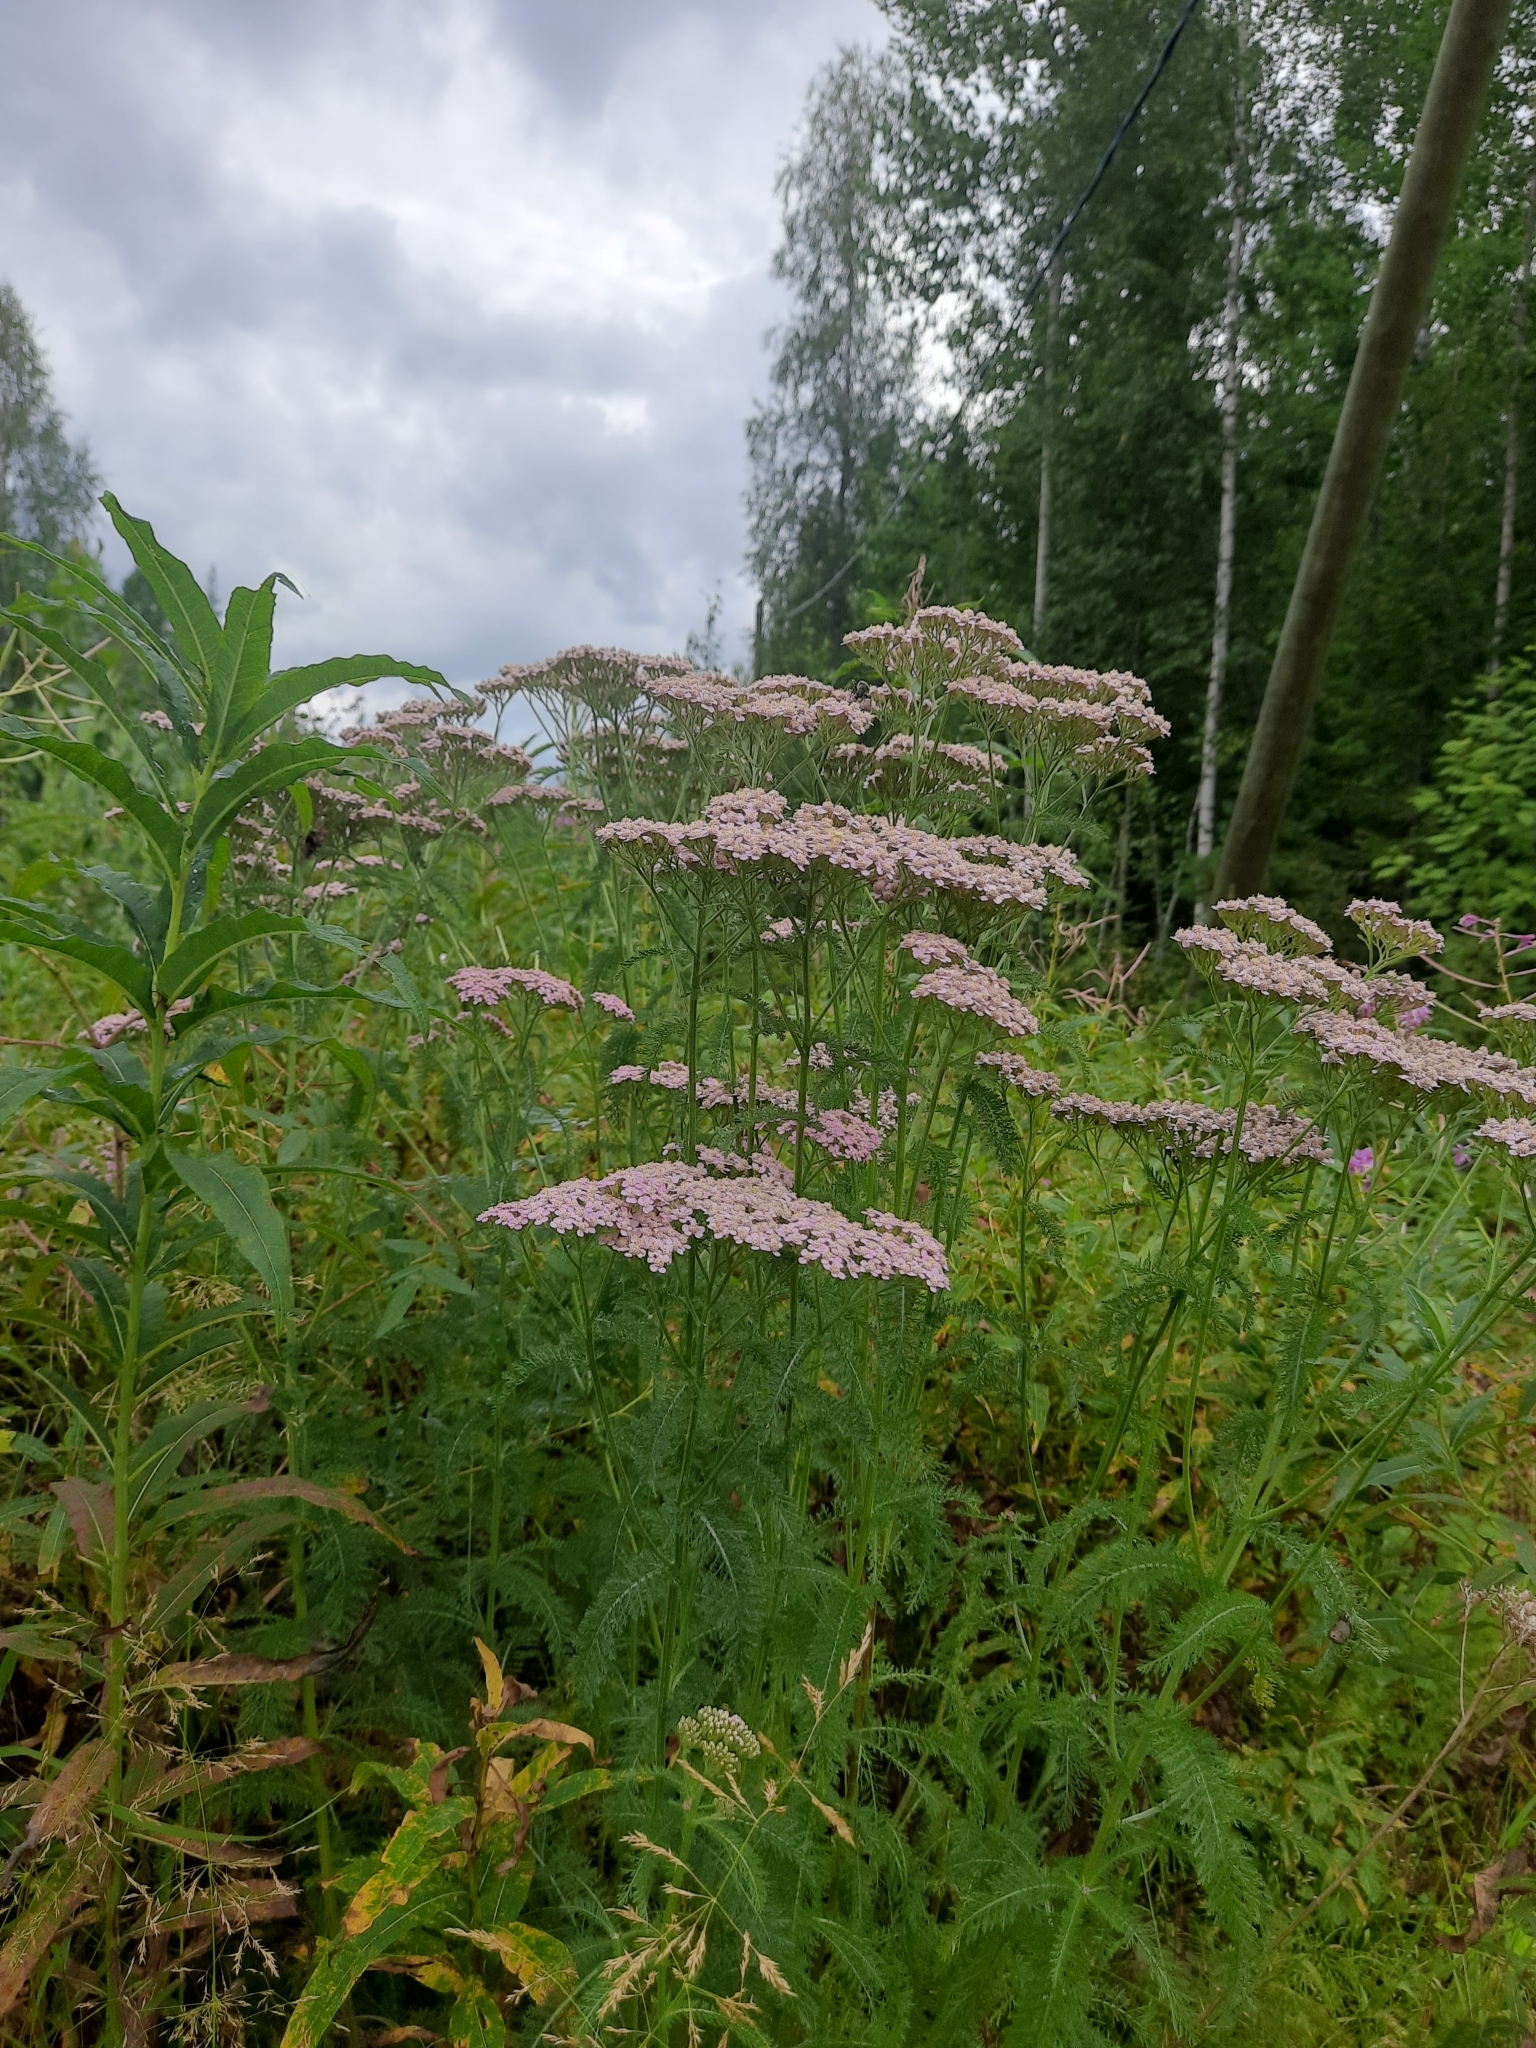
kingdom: Plantae
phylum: Tracheophyta
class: Magnoliopsida
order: Asterales
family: Asteraceae
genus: Achillea
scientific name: Achillea asiatica
